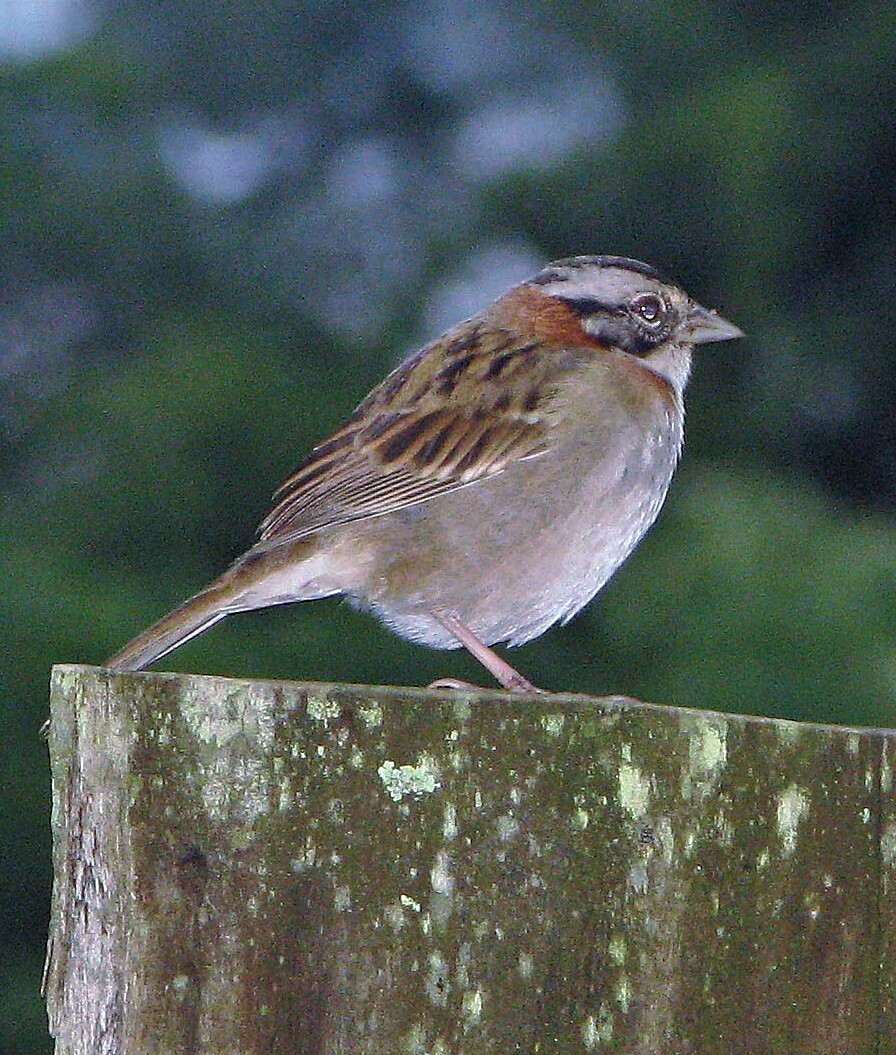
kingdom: Animalia
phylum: Chordata
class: Aves
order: Passeriformes
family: Passerellidae
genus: Zonotrichia
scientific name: Zonotrichia capensis
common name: Rufous-collared sparrow
